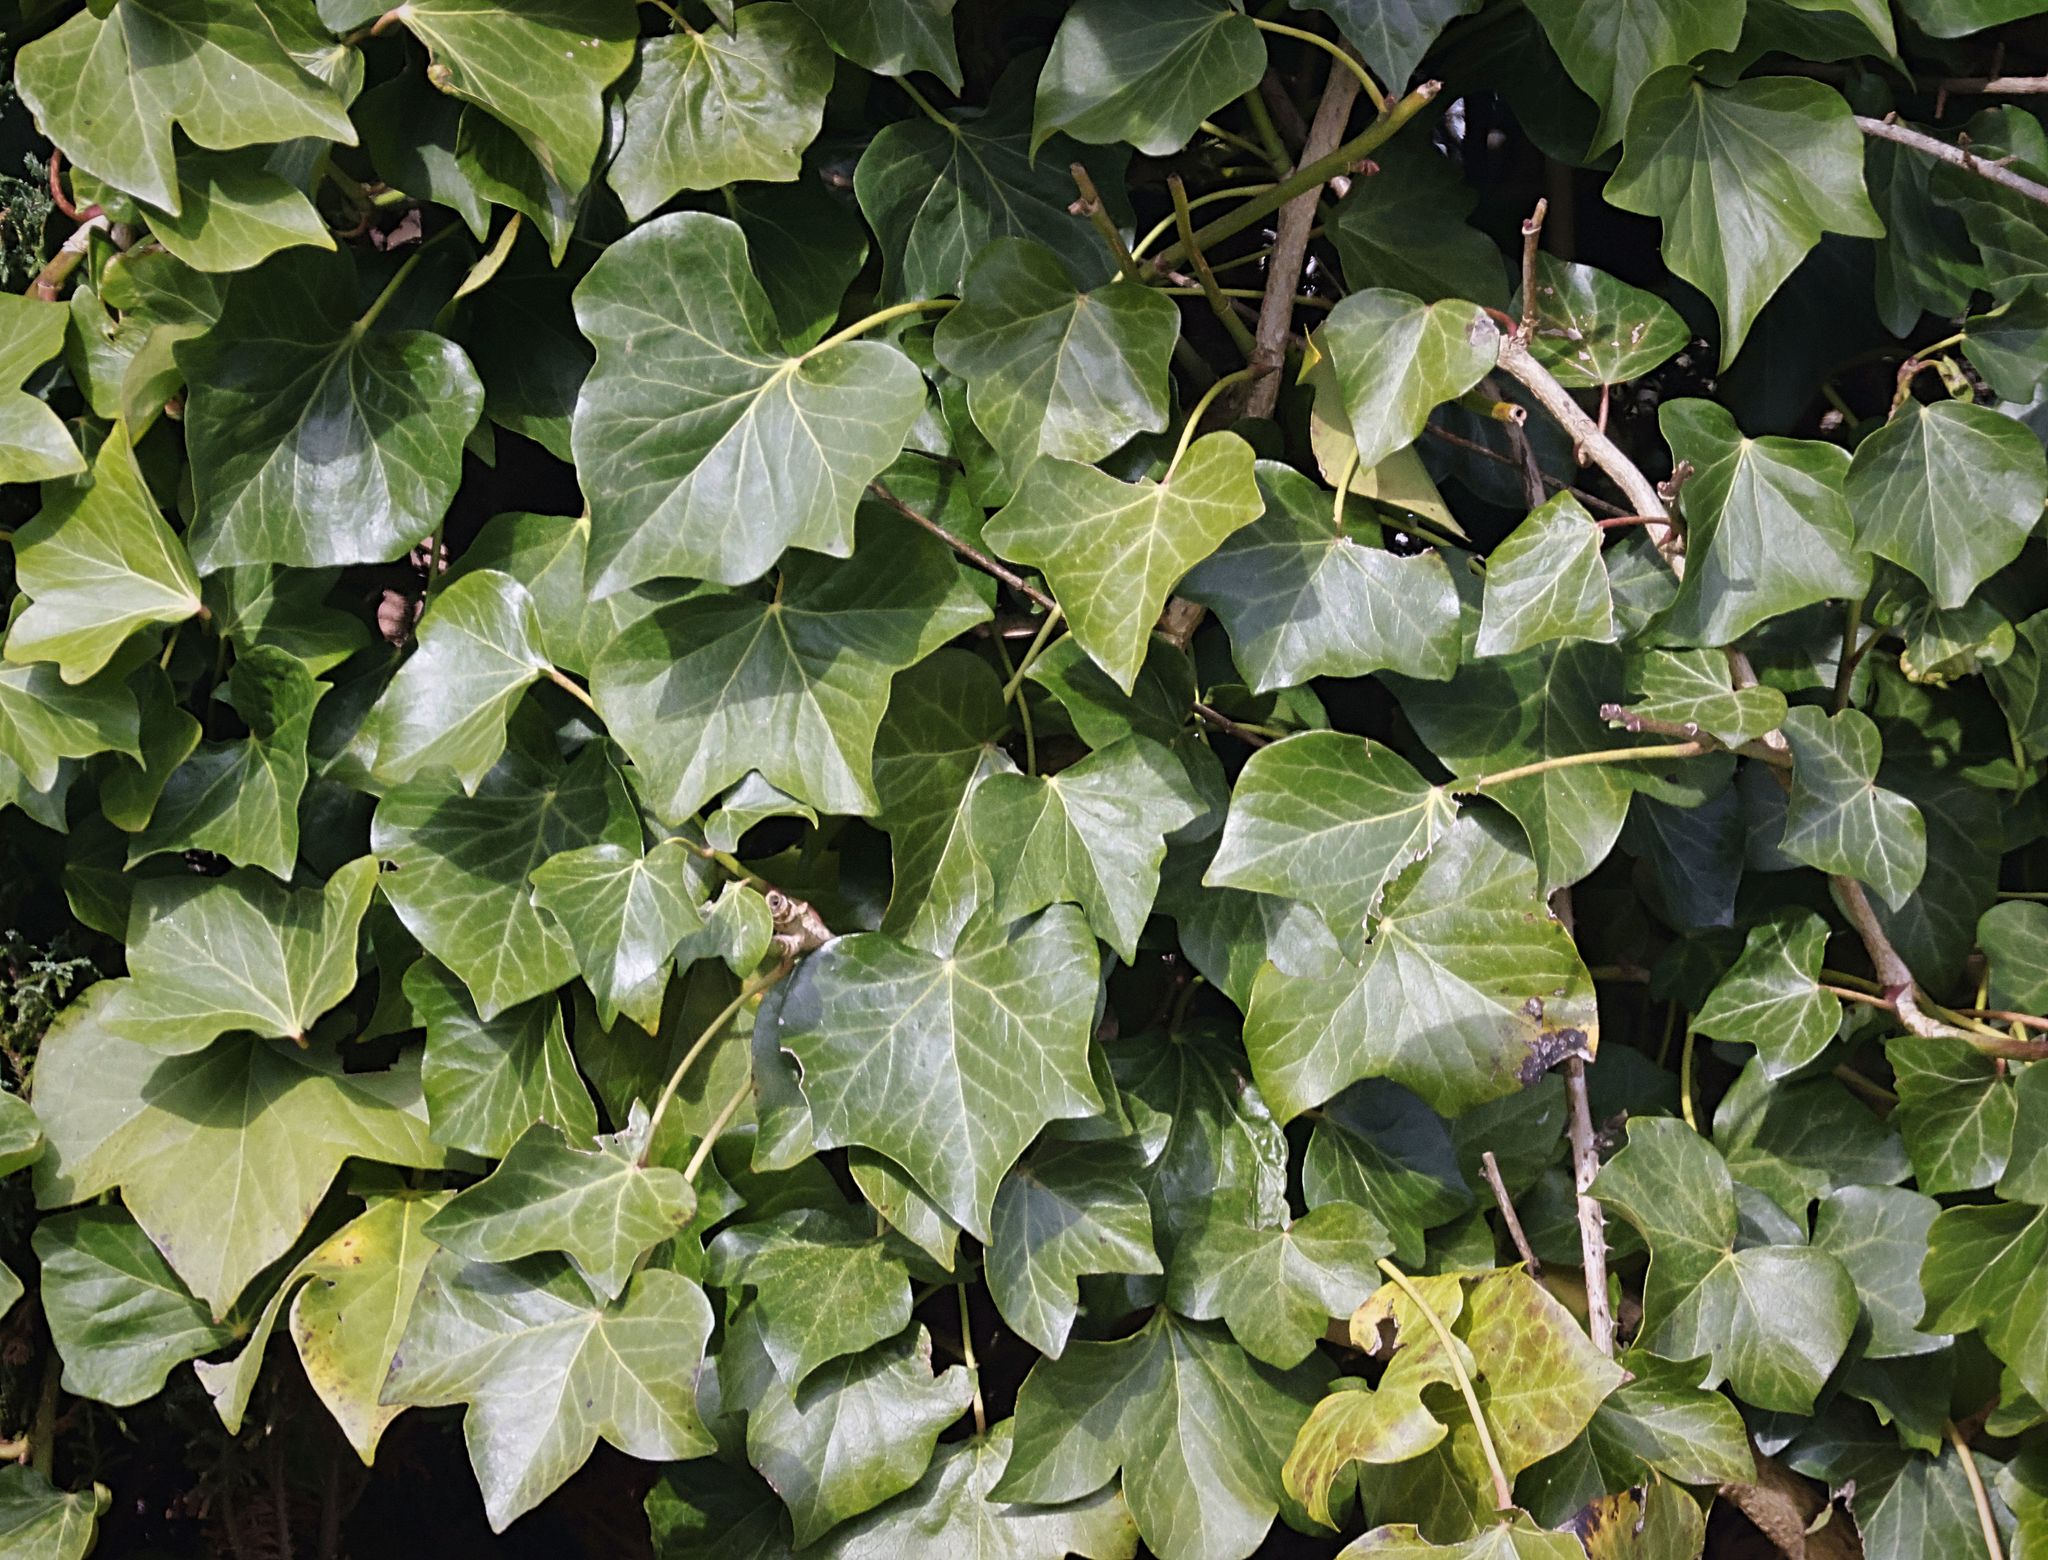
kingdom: Plantae
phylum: Tracheophyta
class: Magnoliopsida
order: Apiales
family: Araliaceae
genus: Hedera
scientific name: Hedera helix
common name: Ivy
